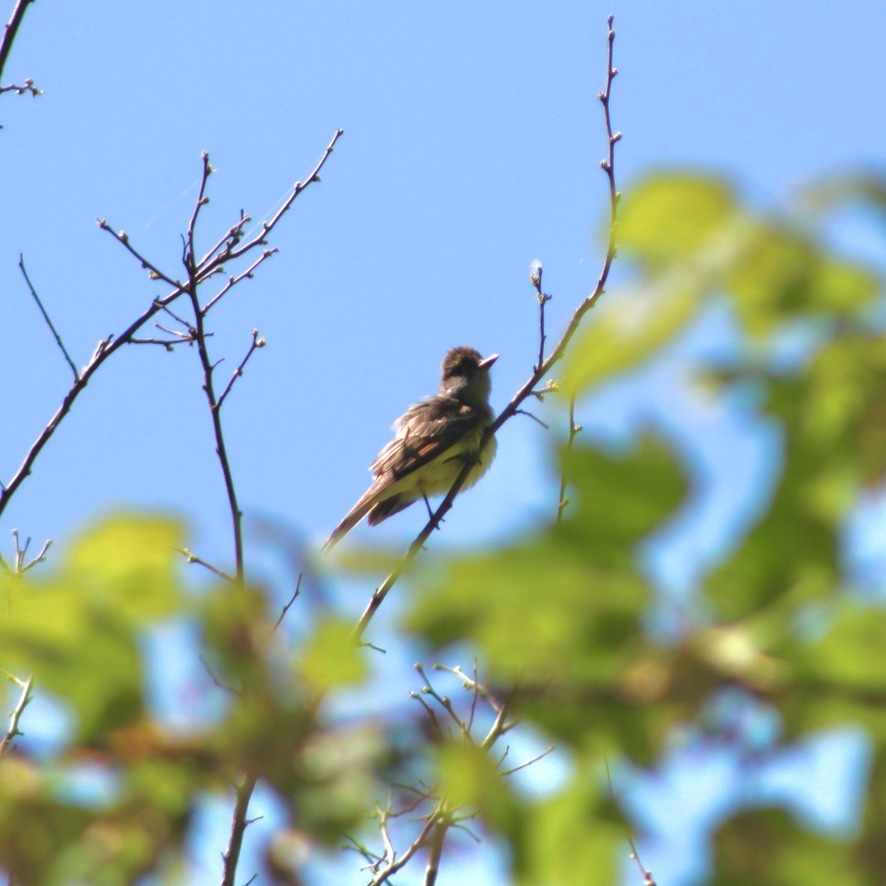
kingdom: Animalia
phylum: Chordata
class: Aves
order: Passeriformes
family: Tyrannidae
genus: Myiarchus
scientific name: Myiarchus crinitus
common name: Great crested flycatcher
